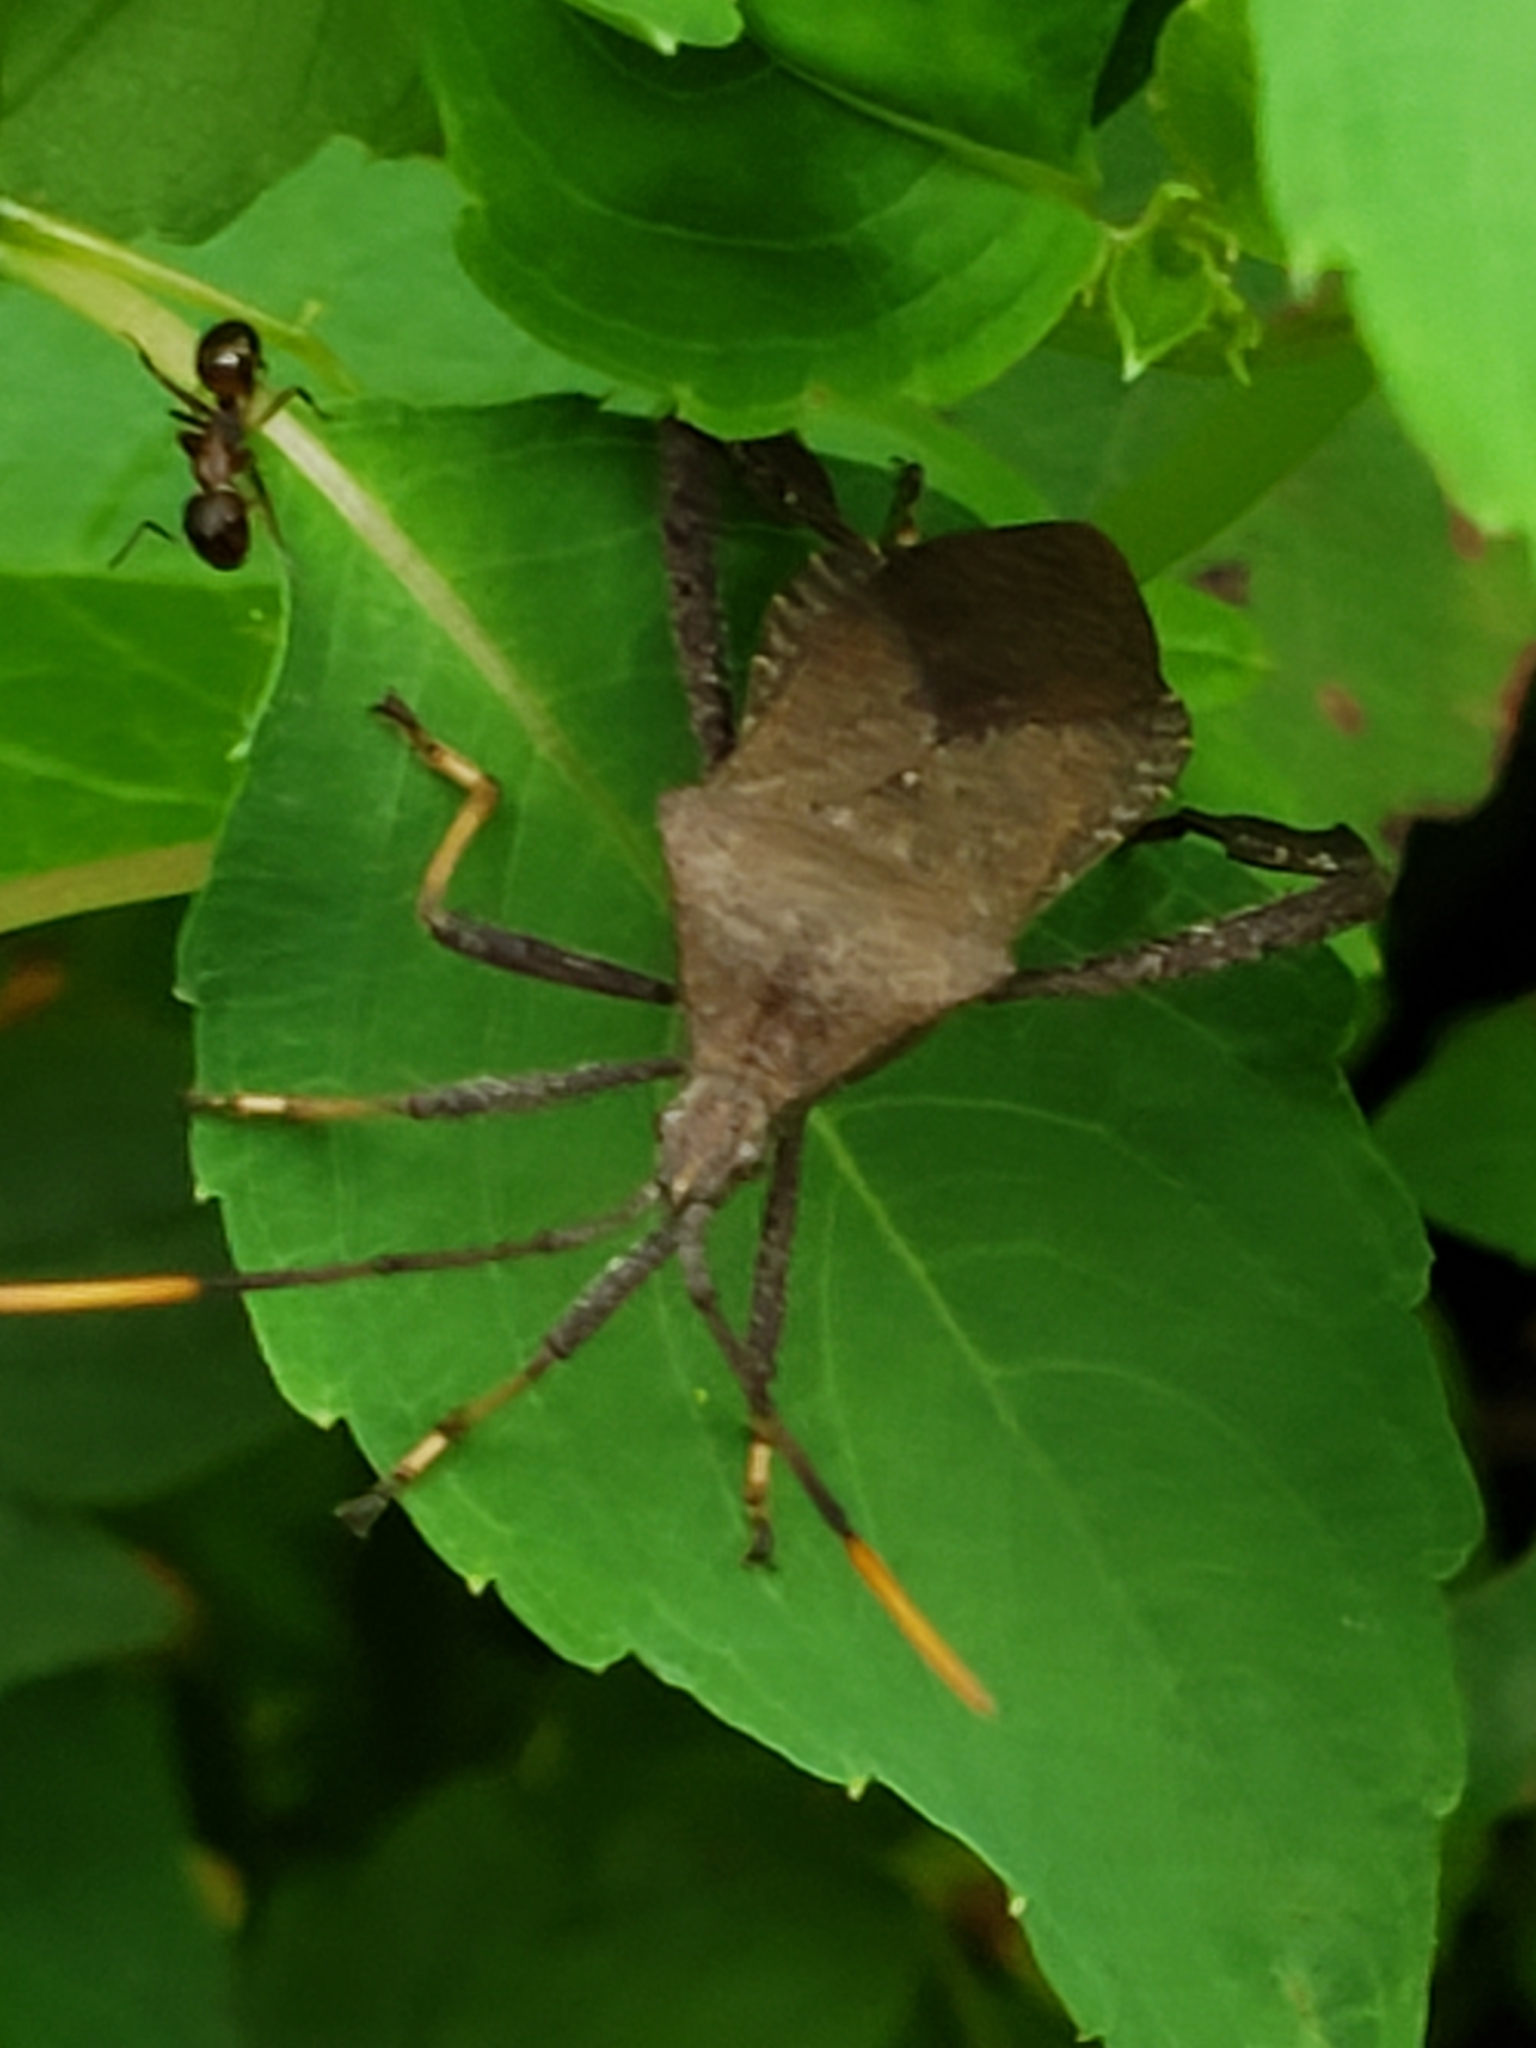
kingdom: Animalia
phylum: Arthropoda
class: Insecta
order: Hemiptera
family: Coreidae
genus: Acanthocephala
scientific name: Acanthocephala terminalis
